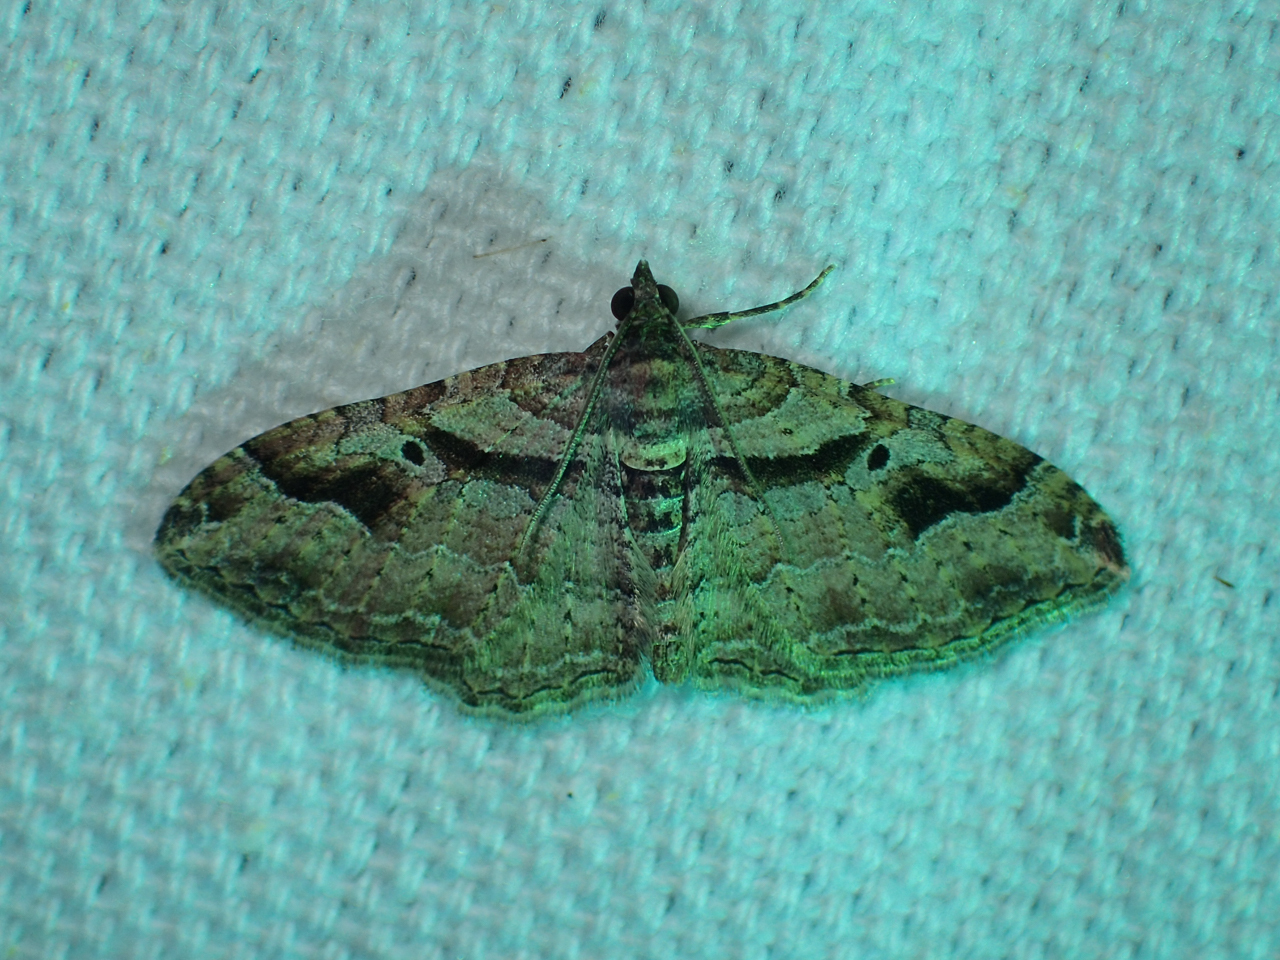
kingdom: Animalia
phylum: Arthropoda
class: Insecta
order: Lepidoptera
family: Geometridae
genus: Costaconvexa
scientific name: Costaconvexa centrostrigaria
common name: Bent-line carpet
